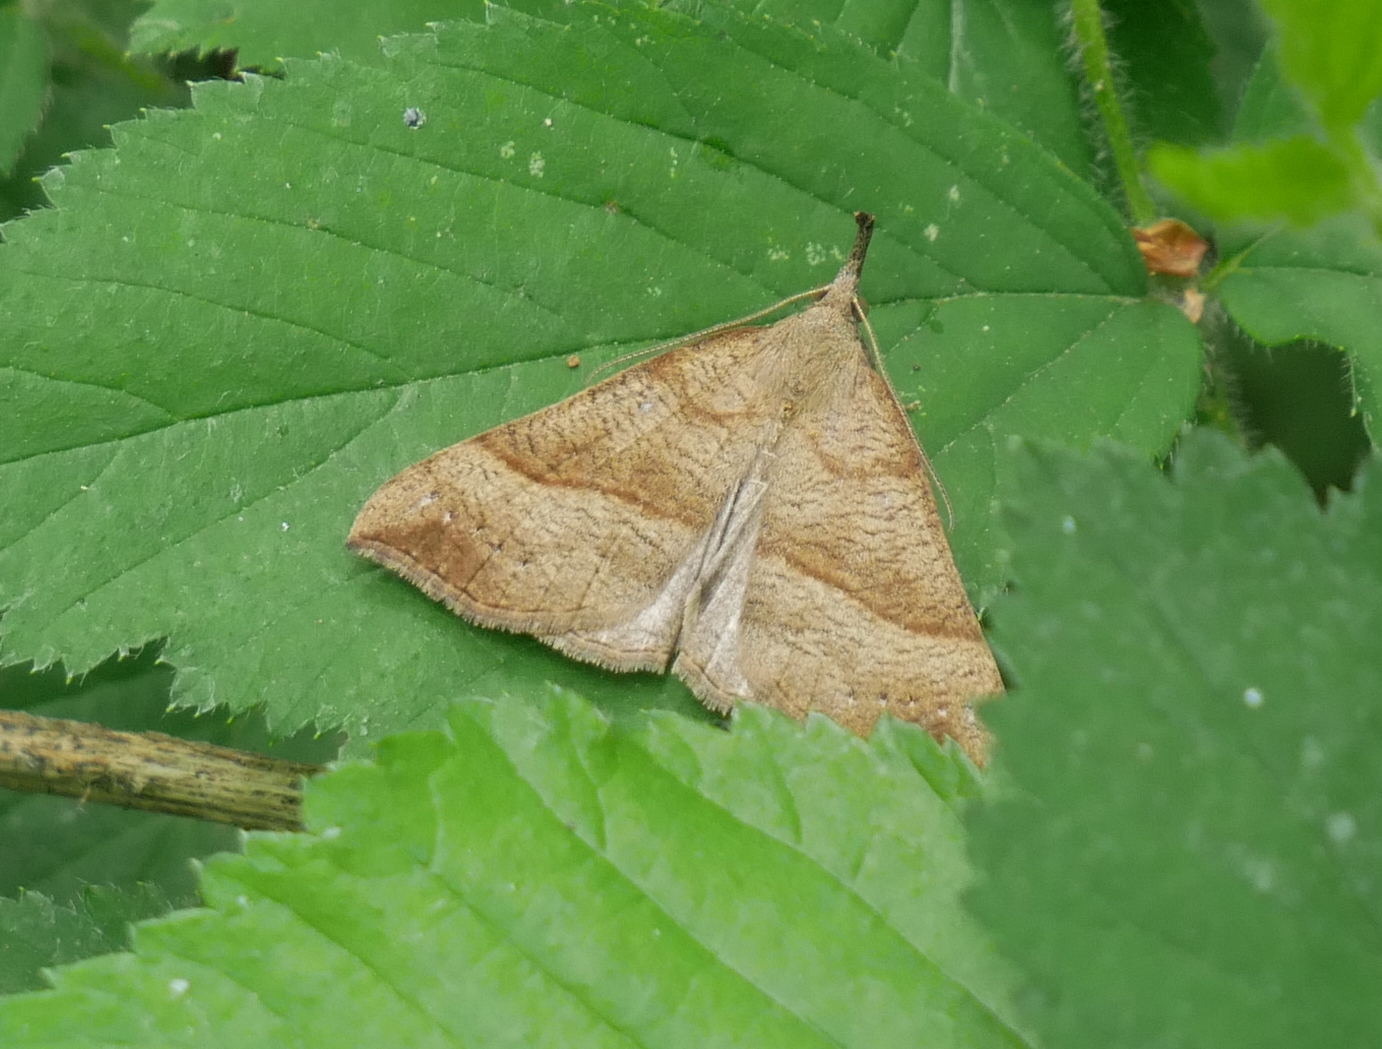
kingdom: Animalia
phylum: Arthropoda
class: Insecta
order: Lepidoptera
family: Erebidae
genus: Hypena
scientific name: Hypena proboscidalis
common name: Snout
